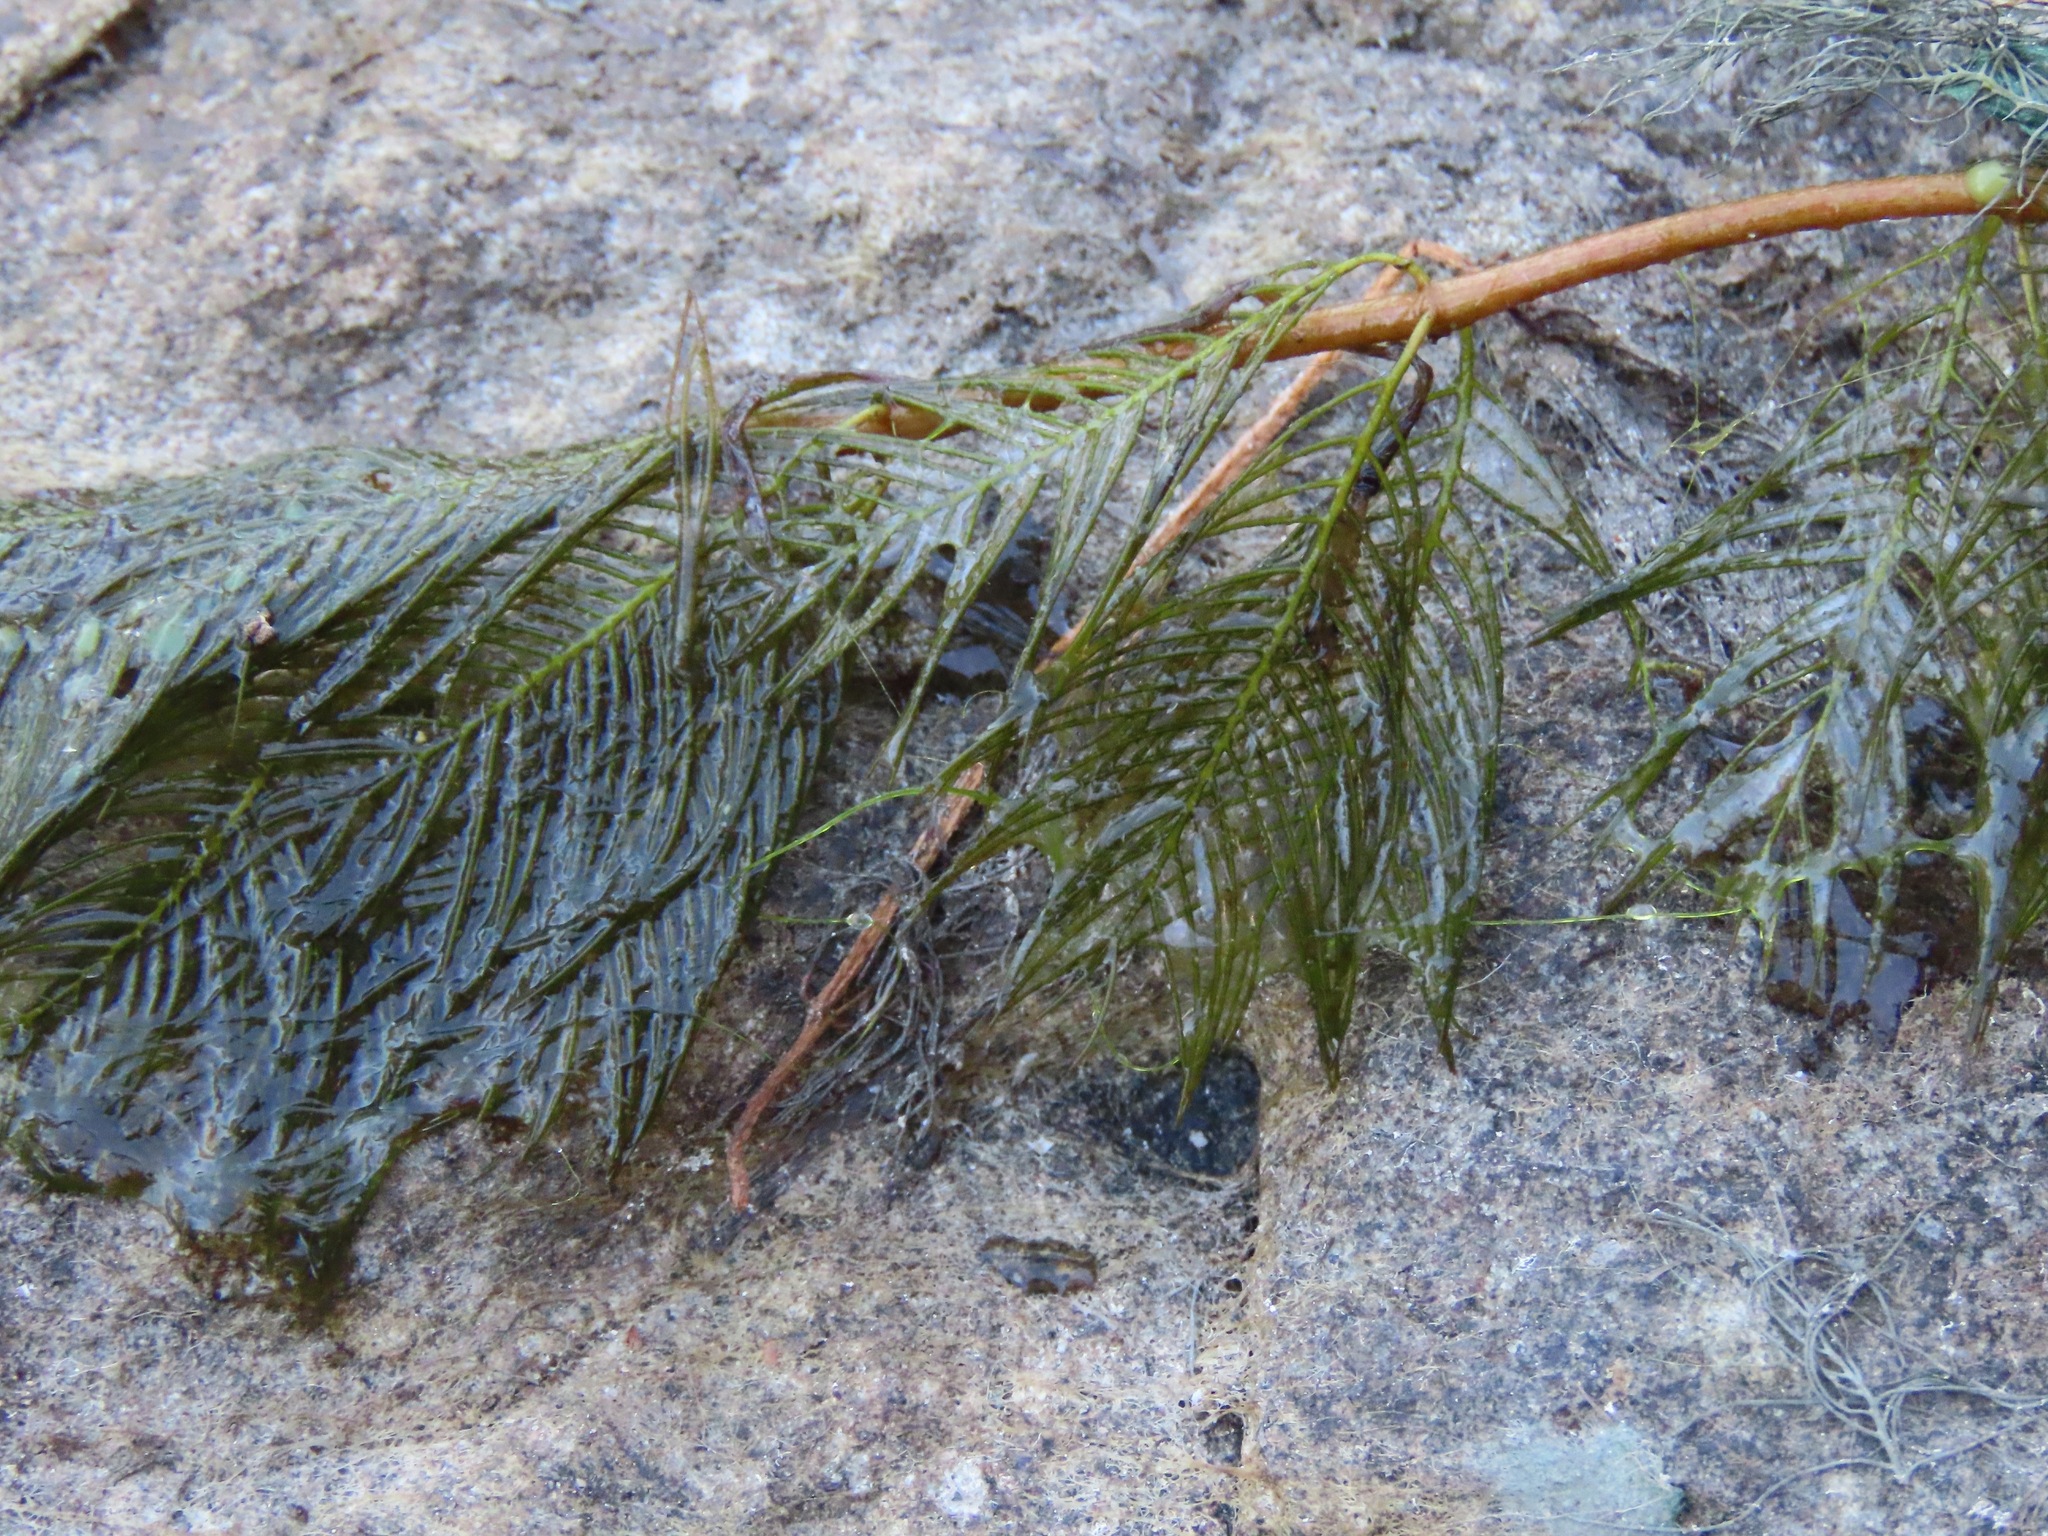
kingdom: Plantae
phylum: Tracheophyta
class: Magnoliopsida
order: Saxifragales
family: Haloragaceae
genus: Myriophyllum
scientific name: Myriophyllum spicatum
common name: Spiked water-milfoil
